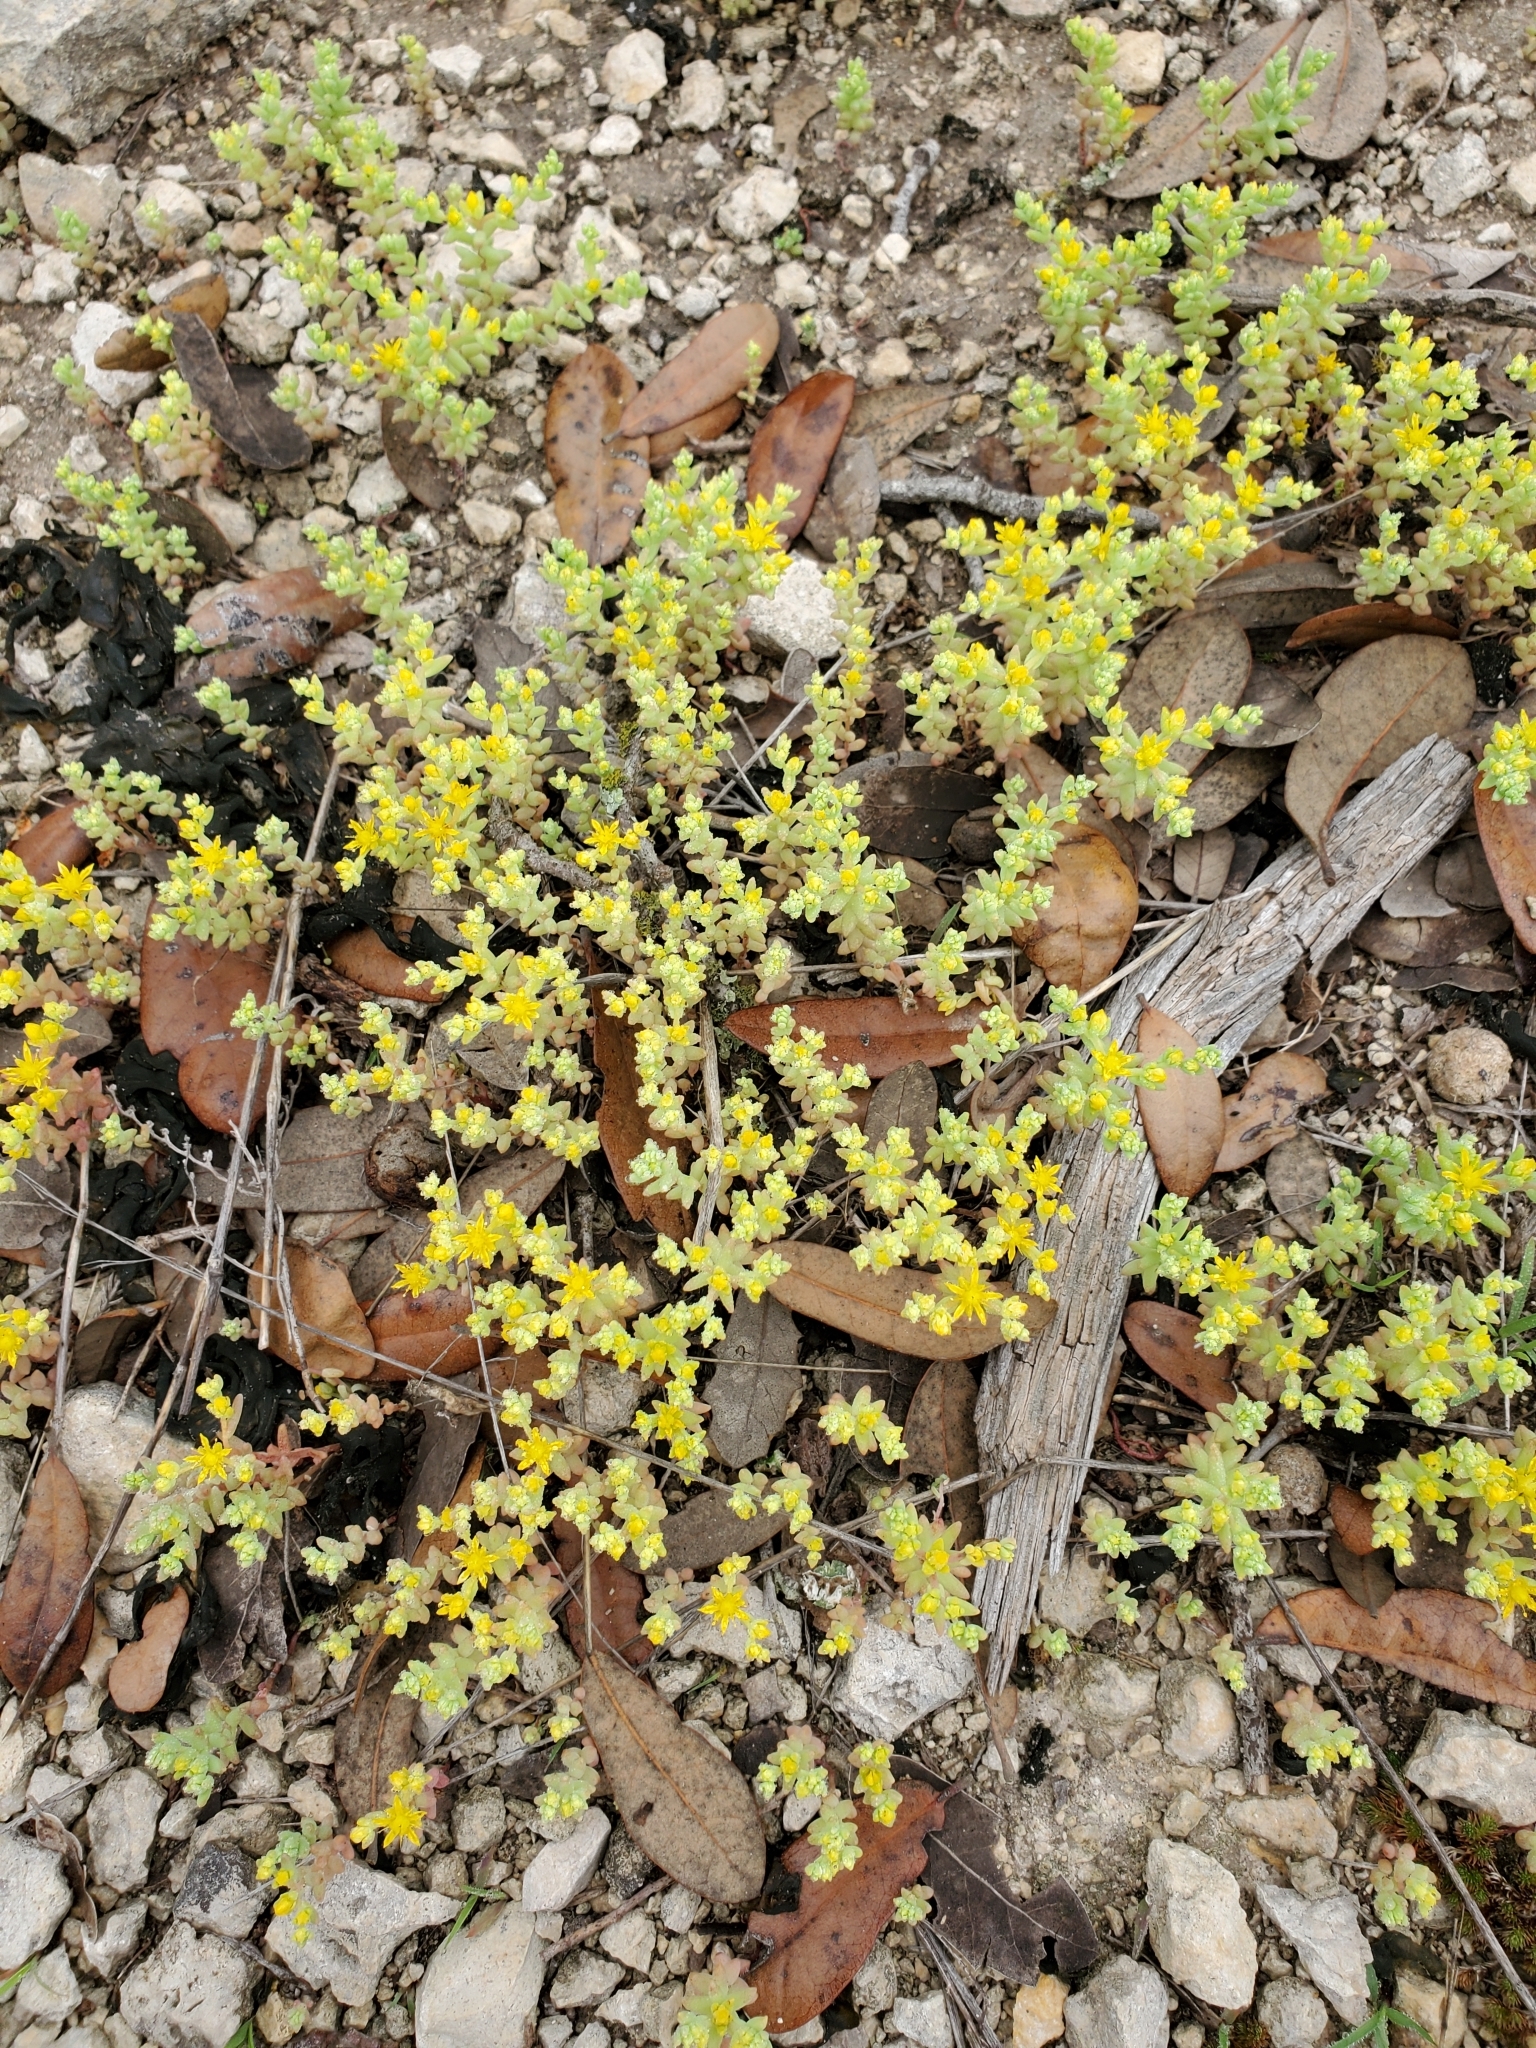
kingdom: Plantae
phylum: Tracheophyta
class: Magnoliopsida
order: Saxifragales
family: Crassulaceae
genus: Sedum
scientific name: Sedum nuttallii
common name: Yellow stonecrop
